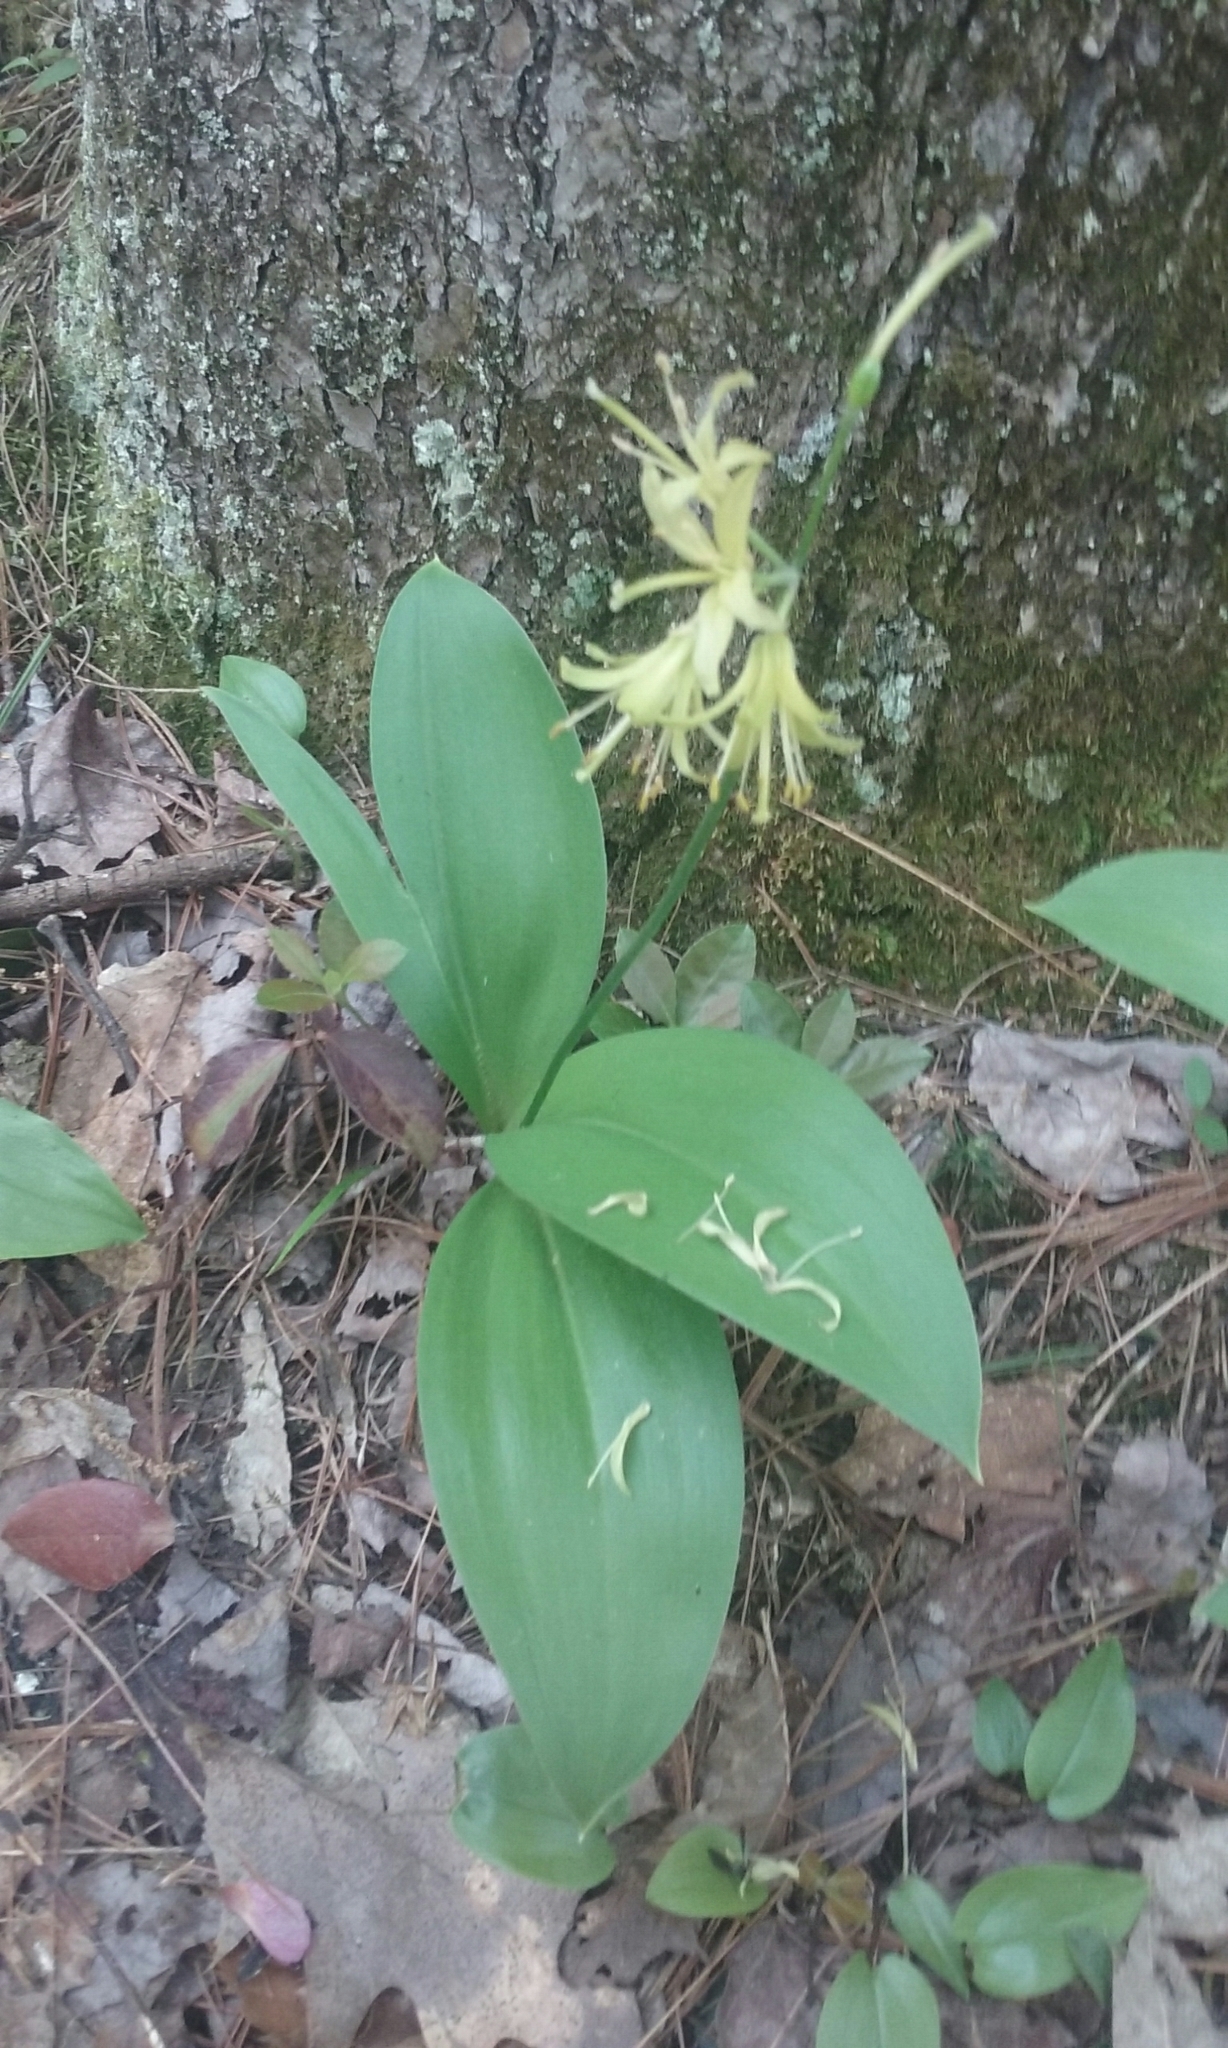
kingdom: Plantae
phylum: Tracheophyta
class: Liliopsida
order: Liliales
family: Liliaceae
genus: Clintonia
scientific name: Clintonia borealis
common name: Yellow clintonia
